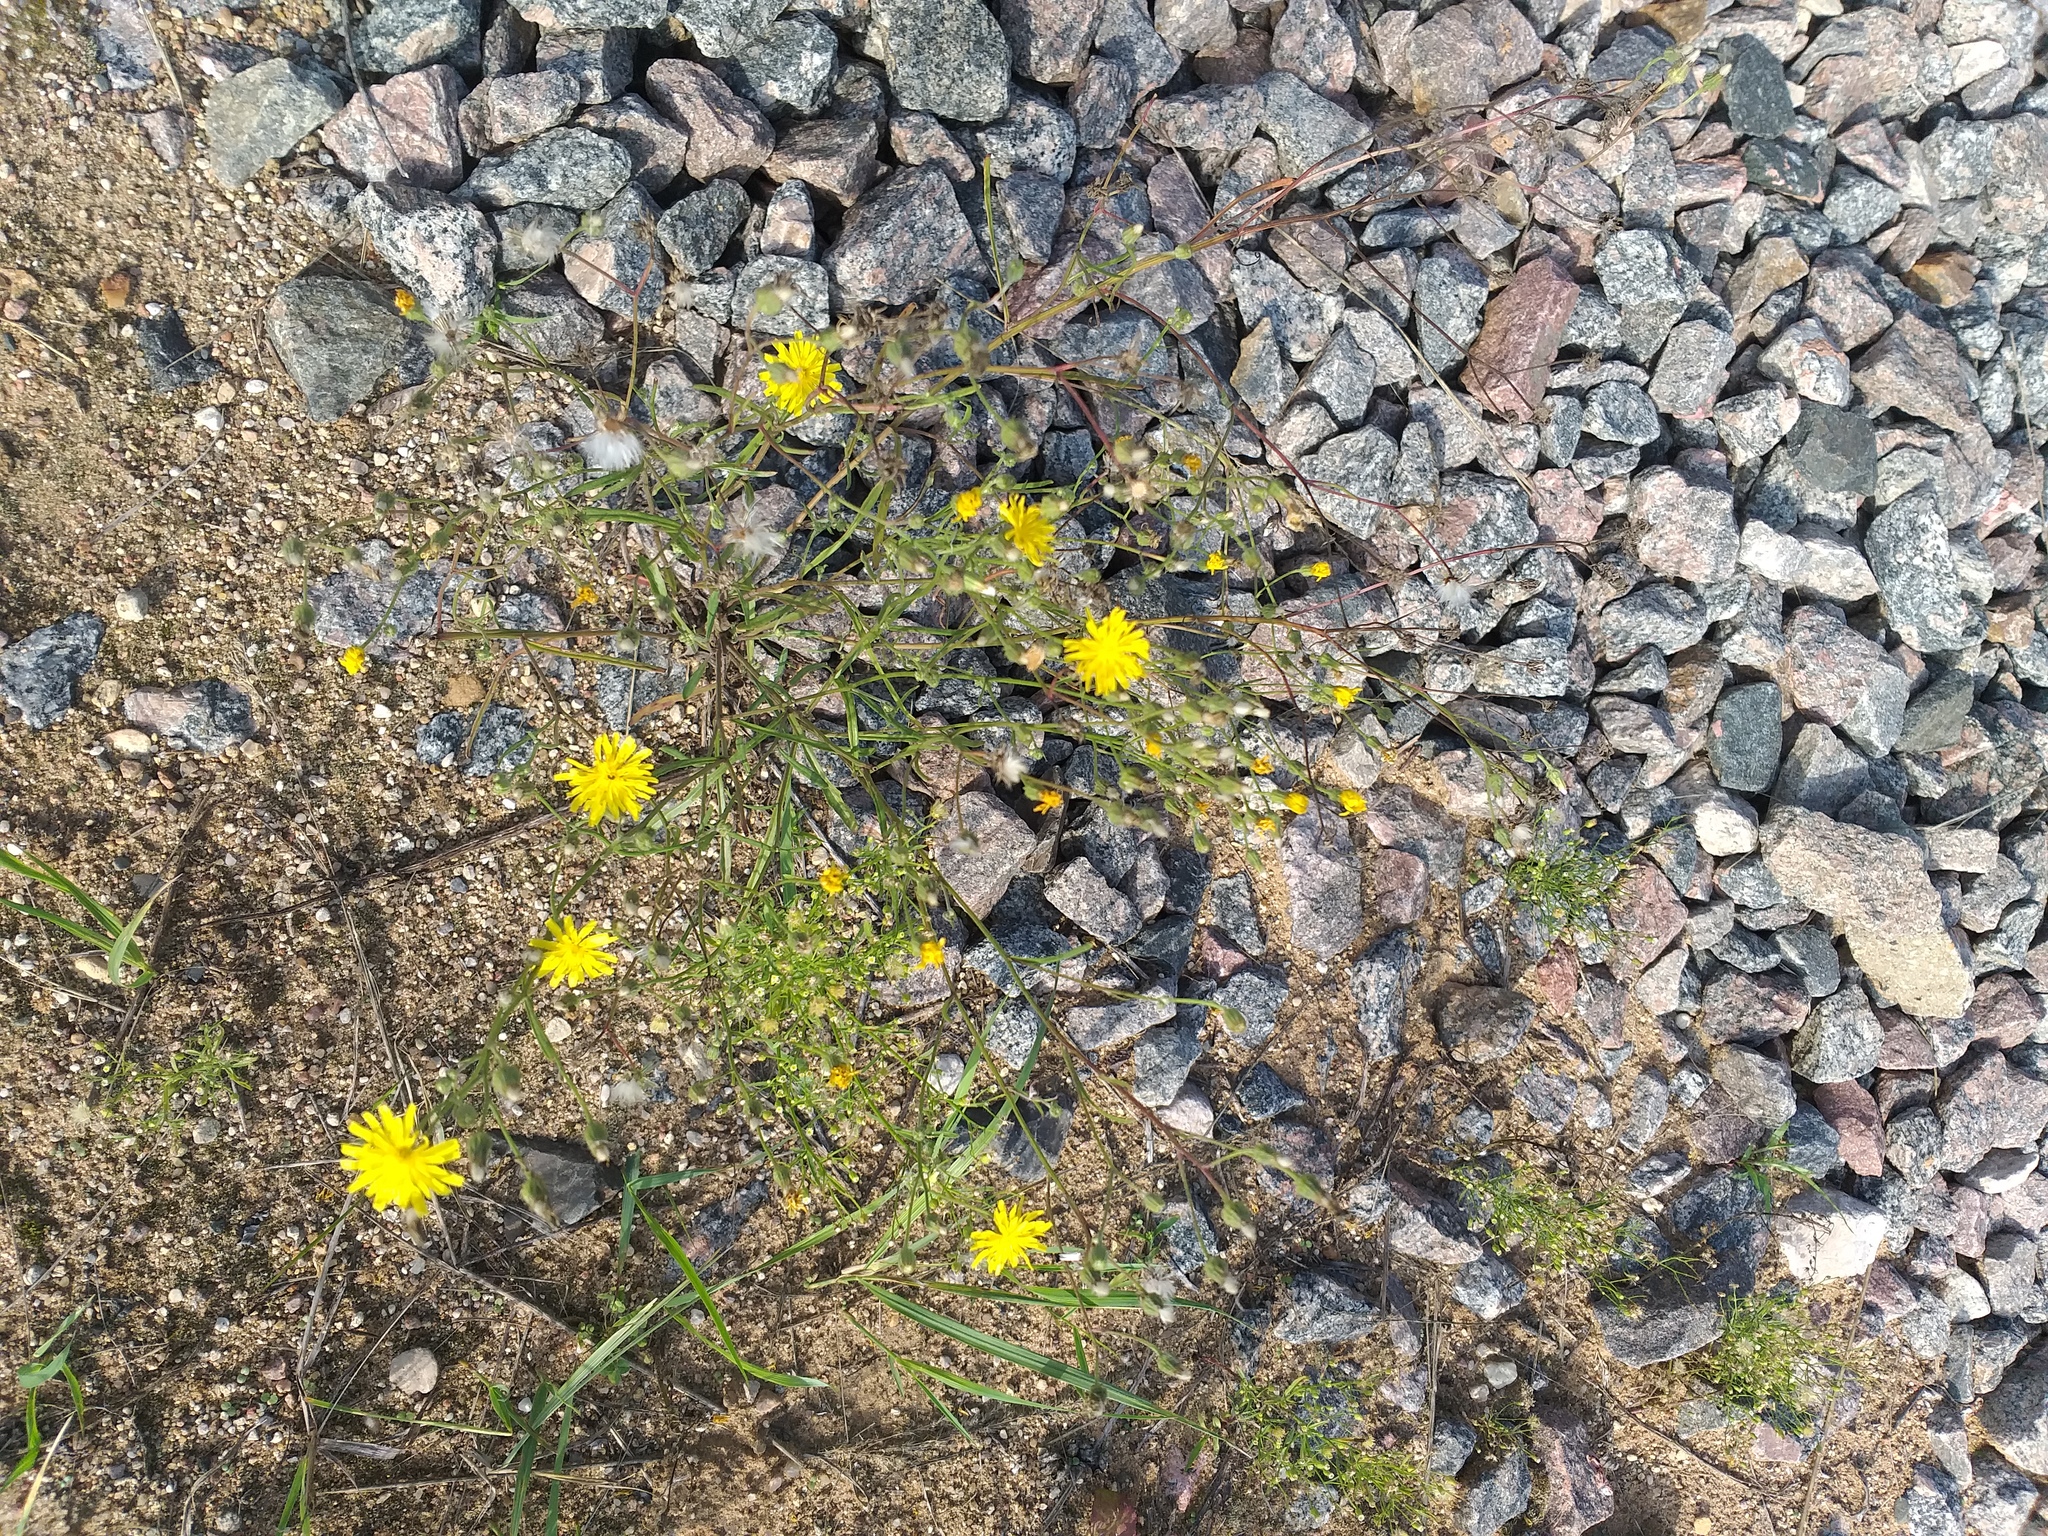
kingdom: Plantae
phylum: Tracheophyta
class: Magnoliopsida
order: Asterales
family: Asteraceae
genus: Crepis
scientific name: Crepis tectorum
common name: Narrow-leaved hawk's-beard
